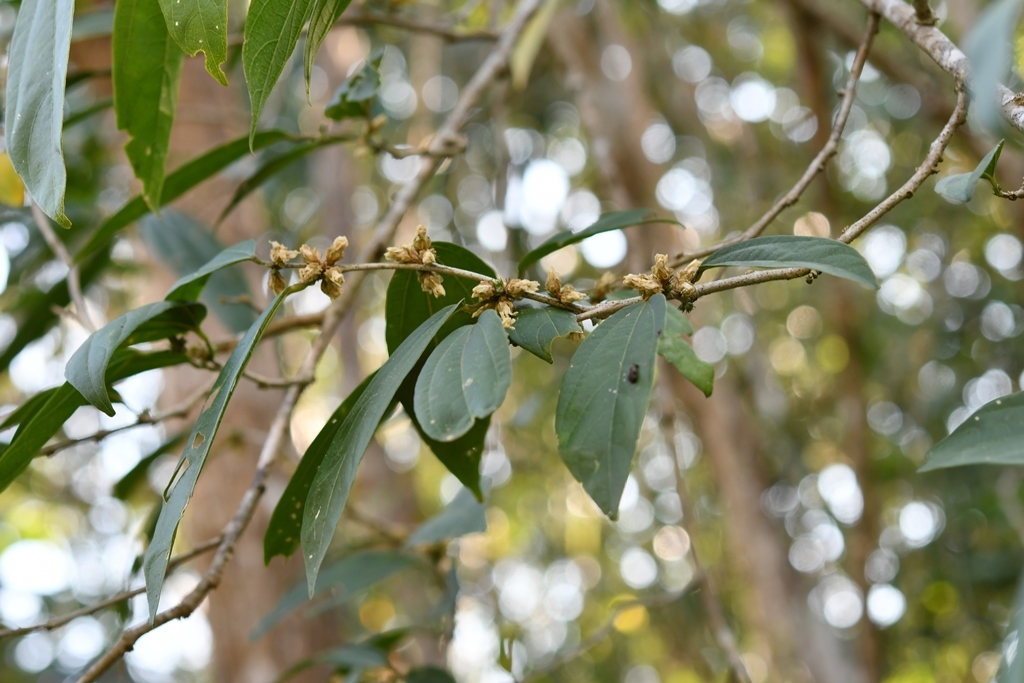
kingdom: Plantae
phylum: Tracheophyta
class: Magnoliopsida
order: Malvales
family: Malvaceae
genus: Hibiscus
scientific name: Hibiscus purpusii
